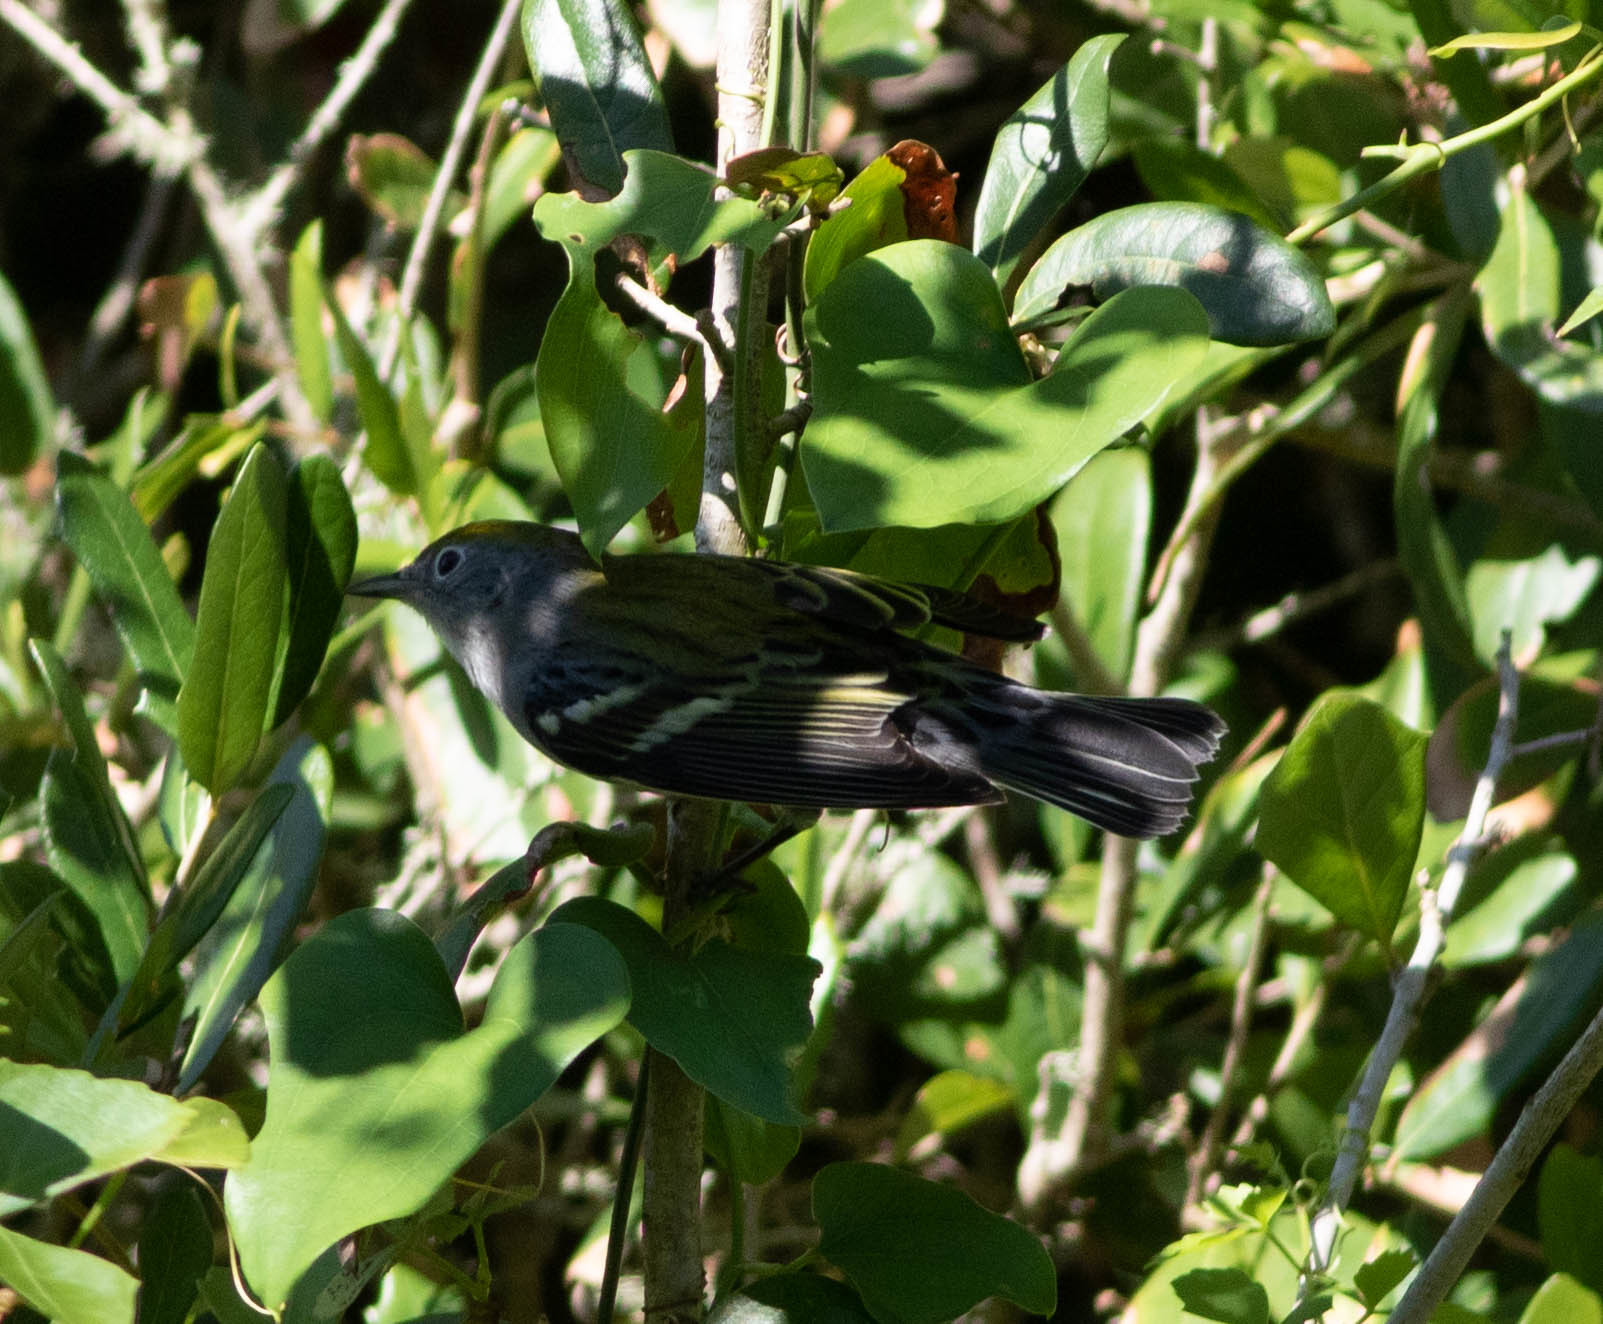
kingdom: Animalia
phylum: Chordata
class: Aves
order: Passeriformes
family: Parulidae
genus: Setophaga
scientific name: Setophaga pensylvanica
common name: Chestnut-sided warbler
